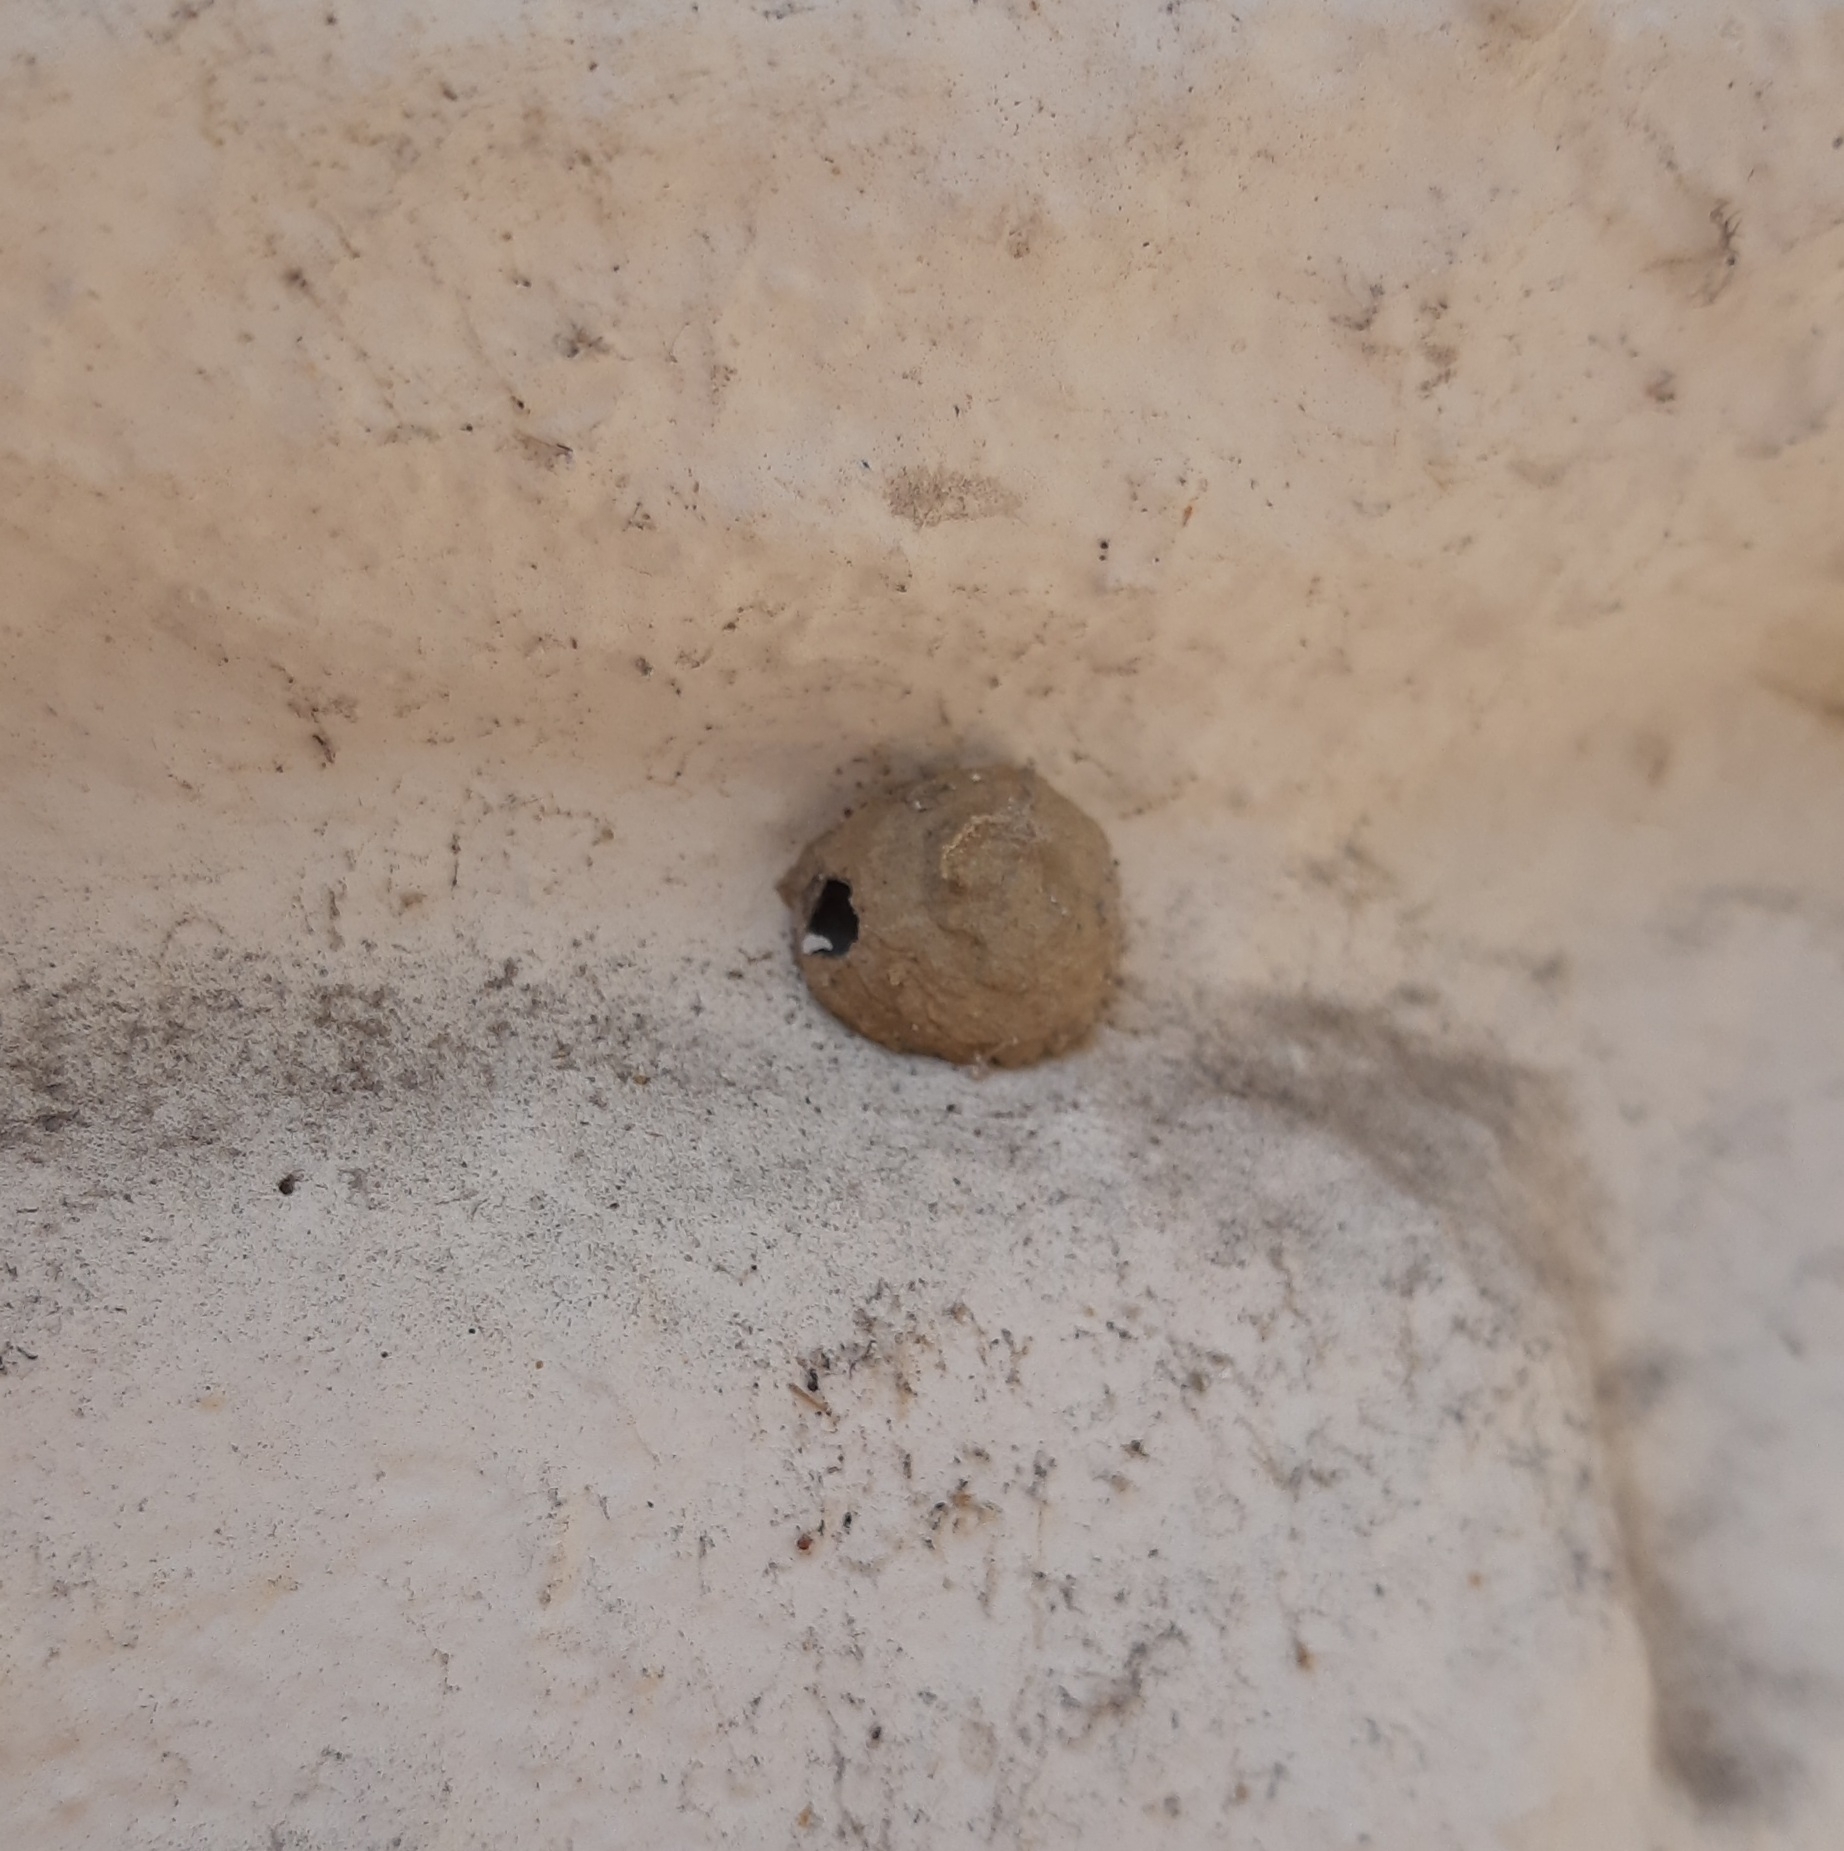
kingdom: Animalia
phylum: Arthropoda
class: Insecta
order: Hymenoptera
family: Vespidae
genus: Eumenes
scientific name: Eumenes
